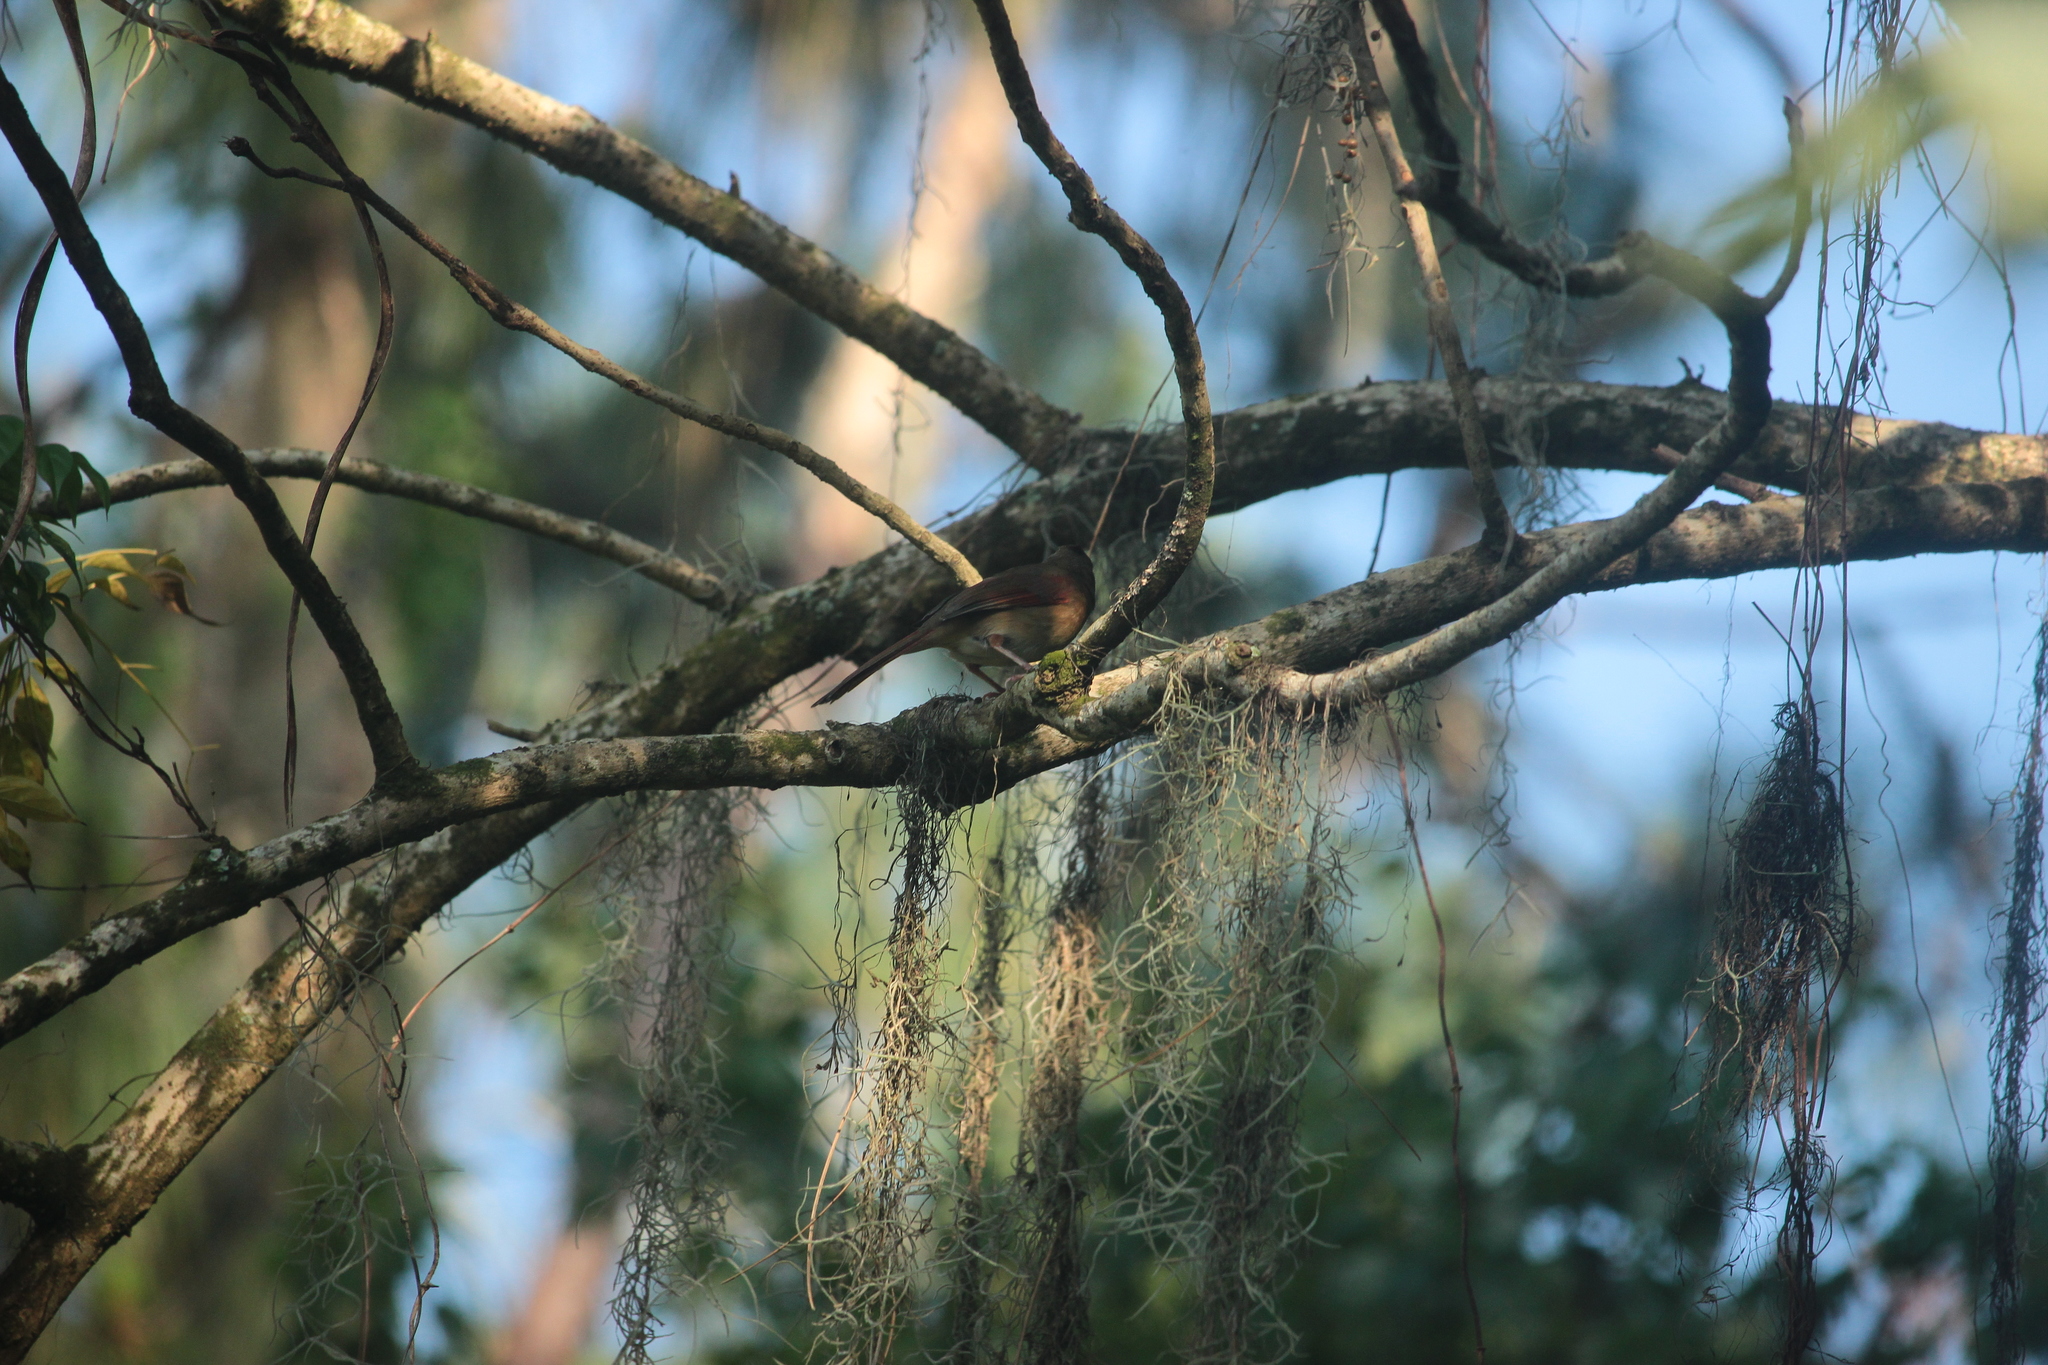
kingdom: Animalia
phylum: Chordata
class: Aves
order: Passeriformes
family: Cardinalidae
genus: Cardinalis
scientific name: Cardinalis cardinalis
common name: Northern cardinal
